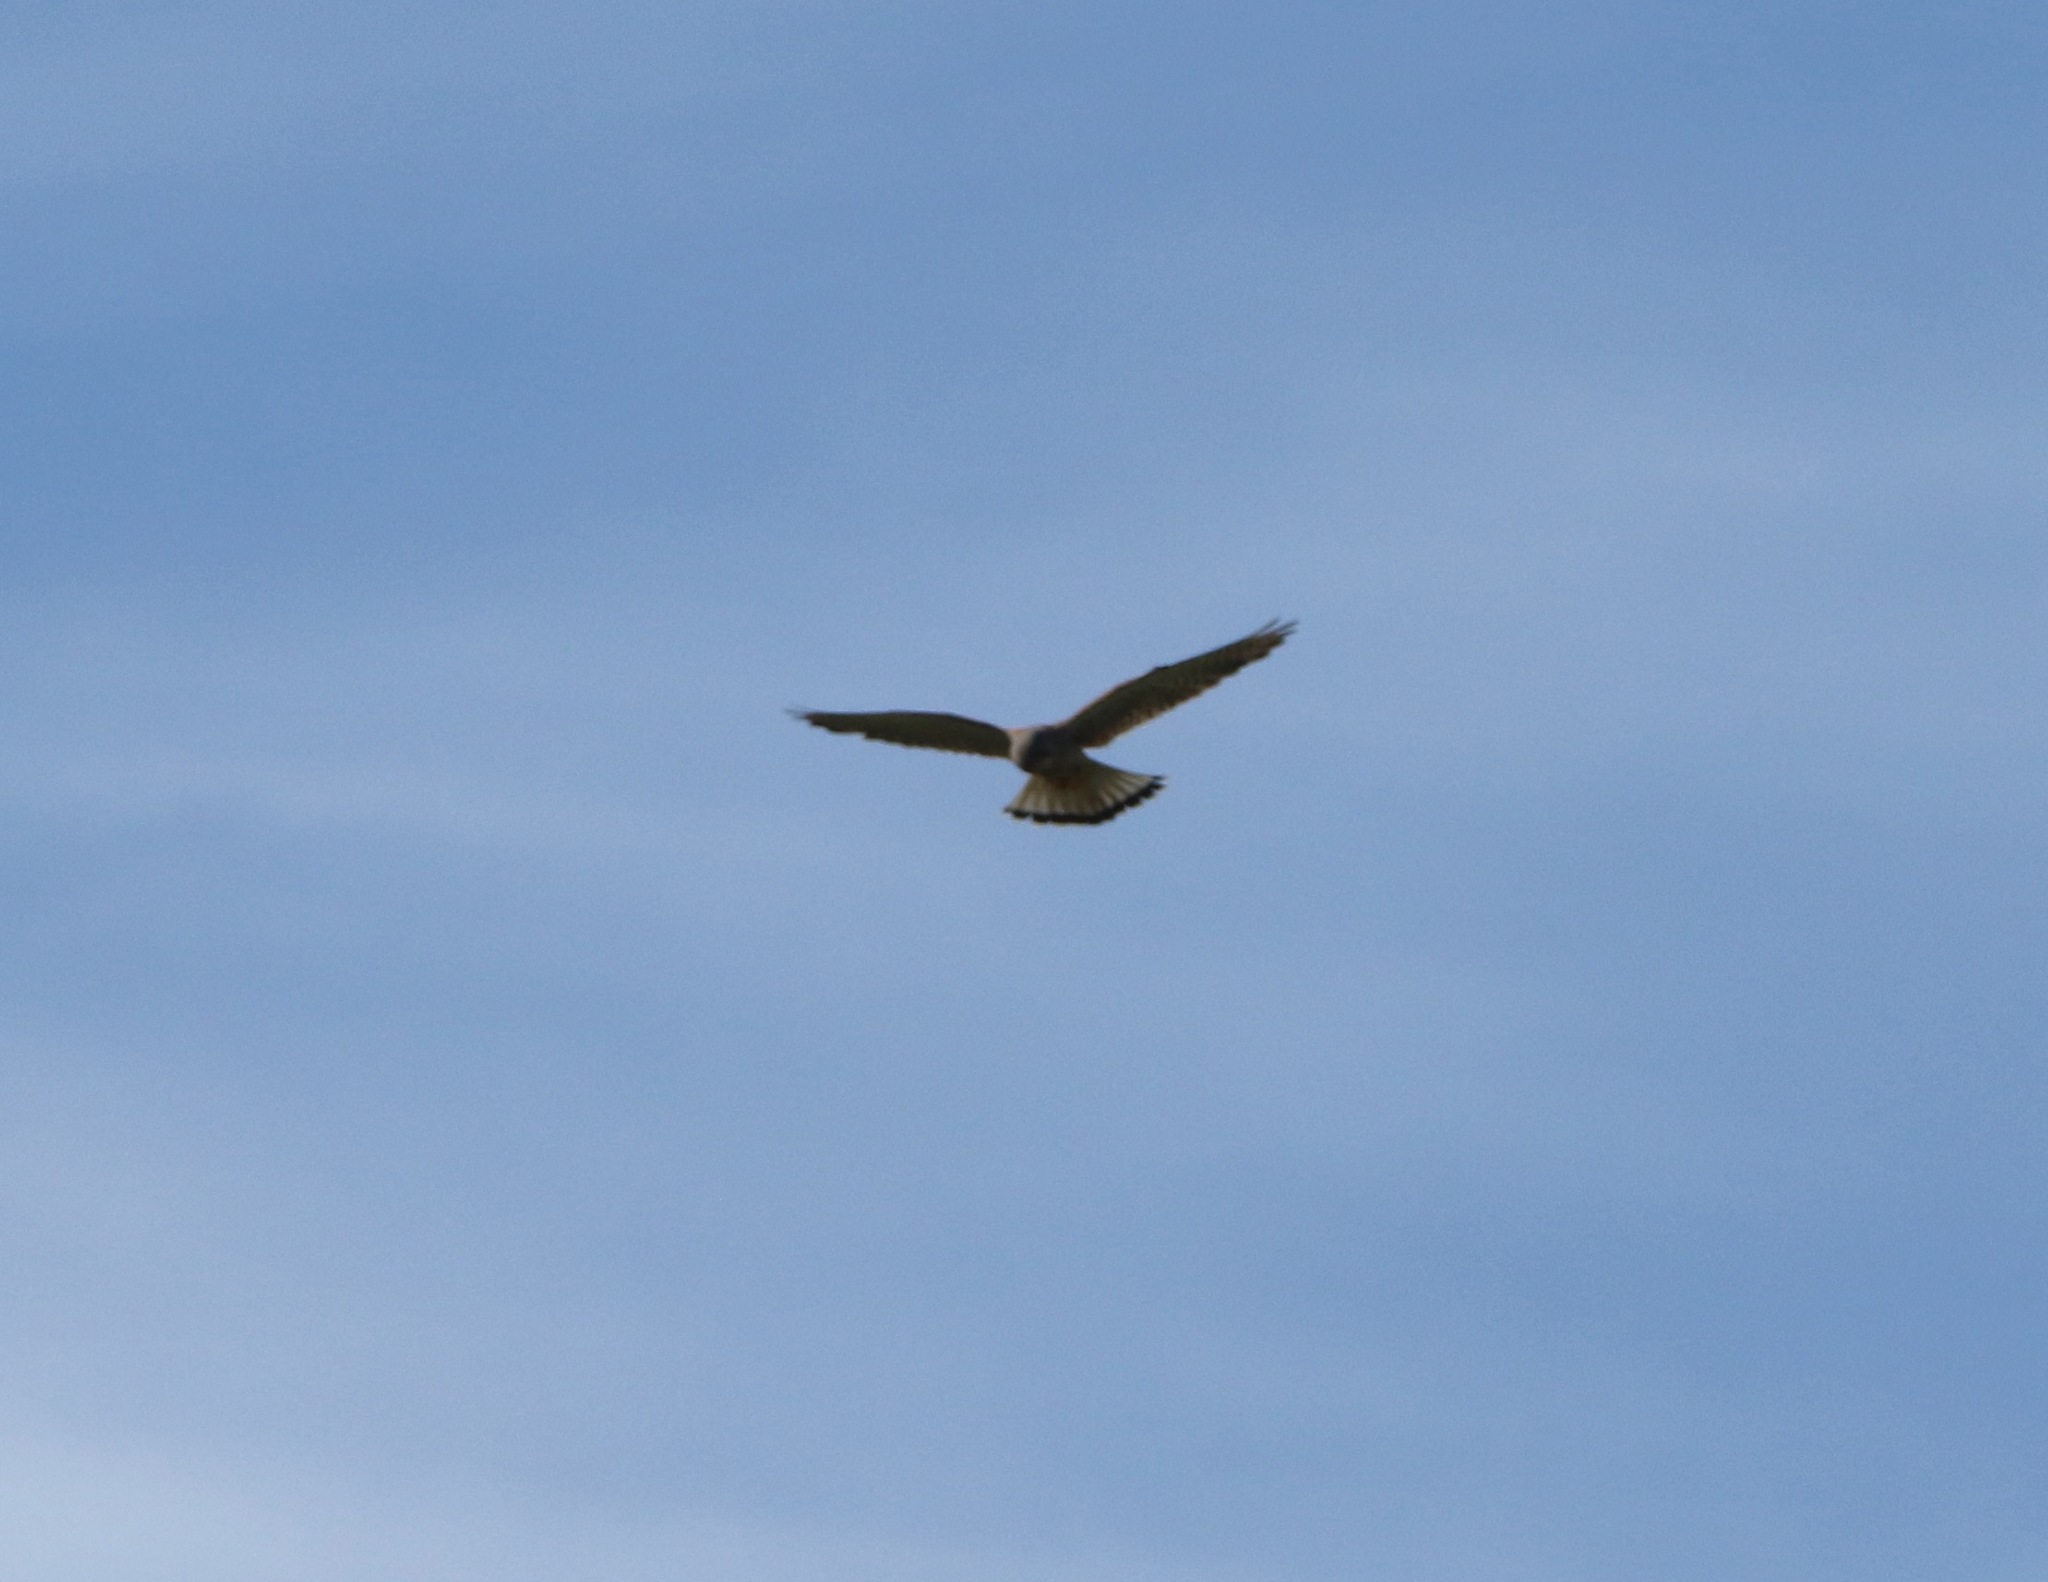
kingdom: Animalia
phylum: Chordata
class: Aves
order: Falconiformes
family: Falconidae
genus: Falco
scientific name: Falco tinnunculus
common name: Common kestrel
